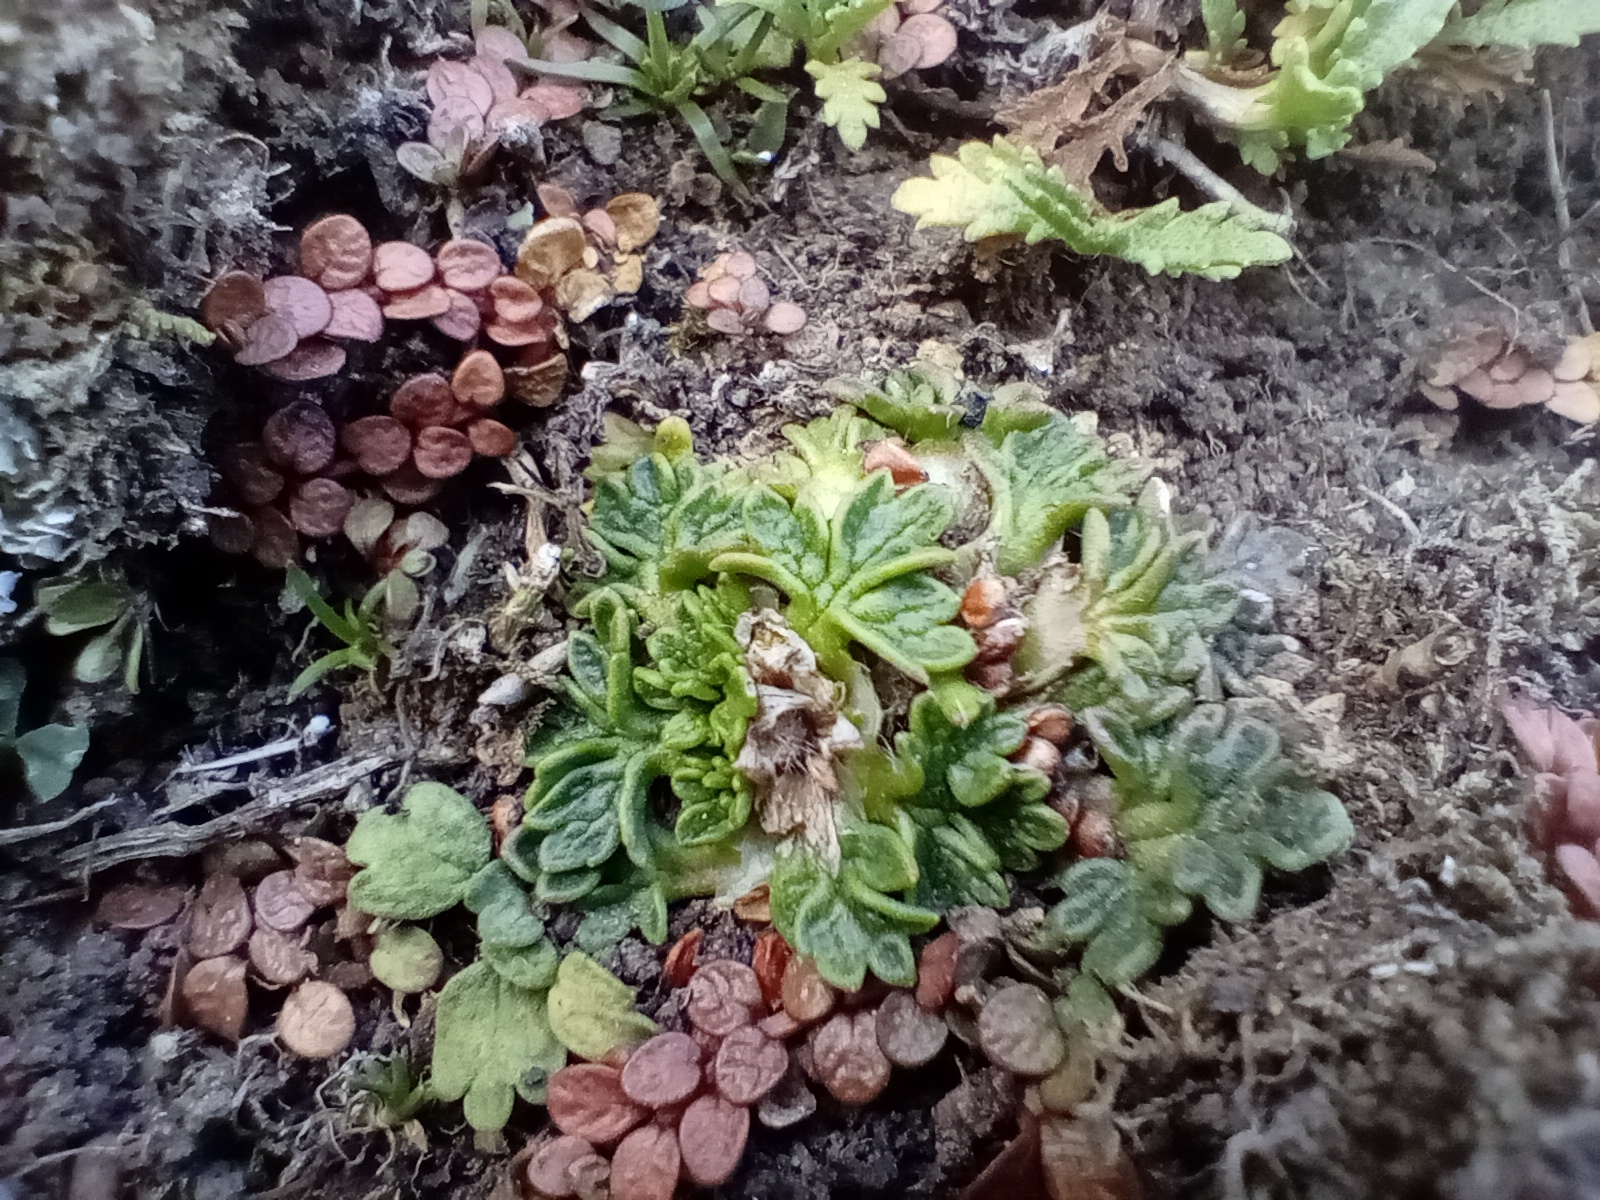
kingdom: Plantae
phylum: Tracheophyta
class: Magnoliopsida
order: Ranunculales
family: Ranunculaceae
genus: Ranunculus
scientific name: Ranunculus recens
